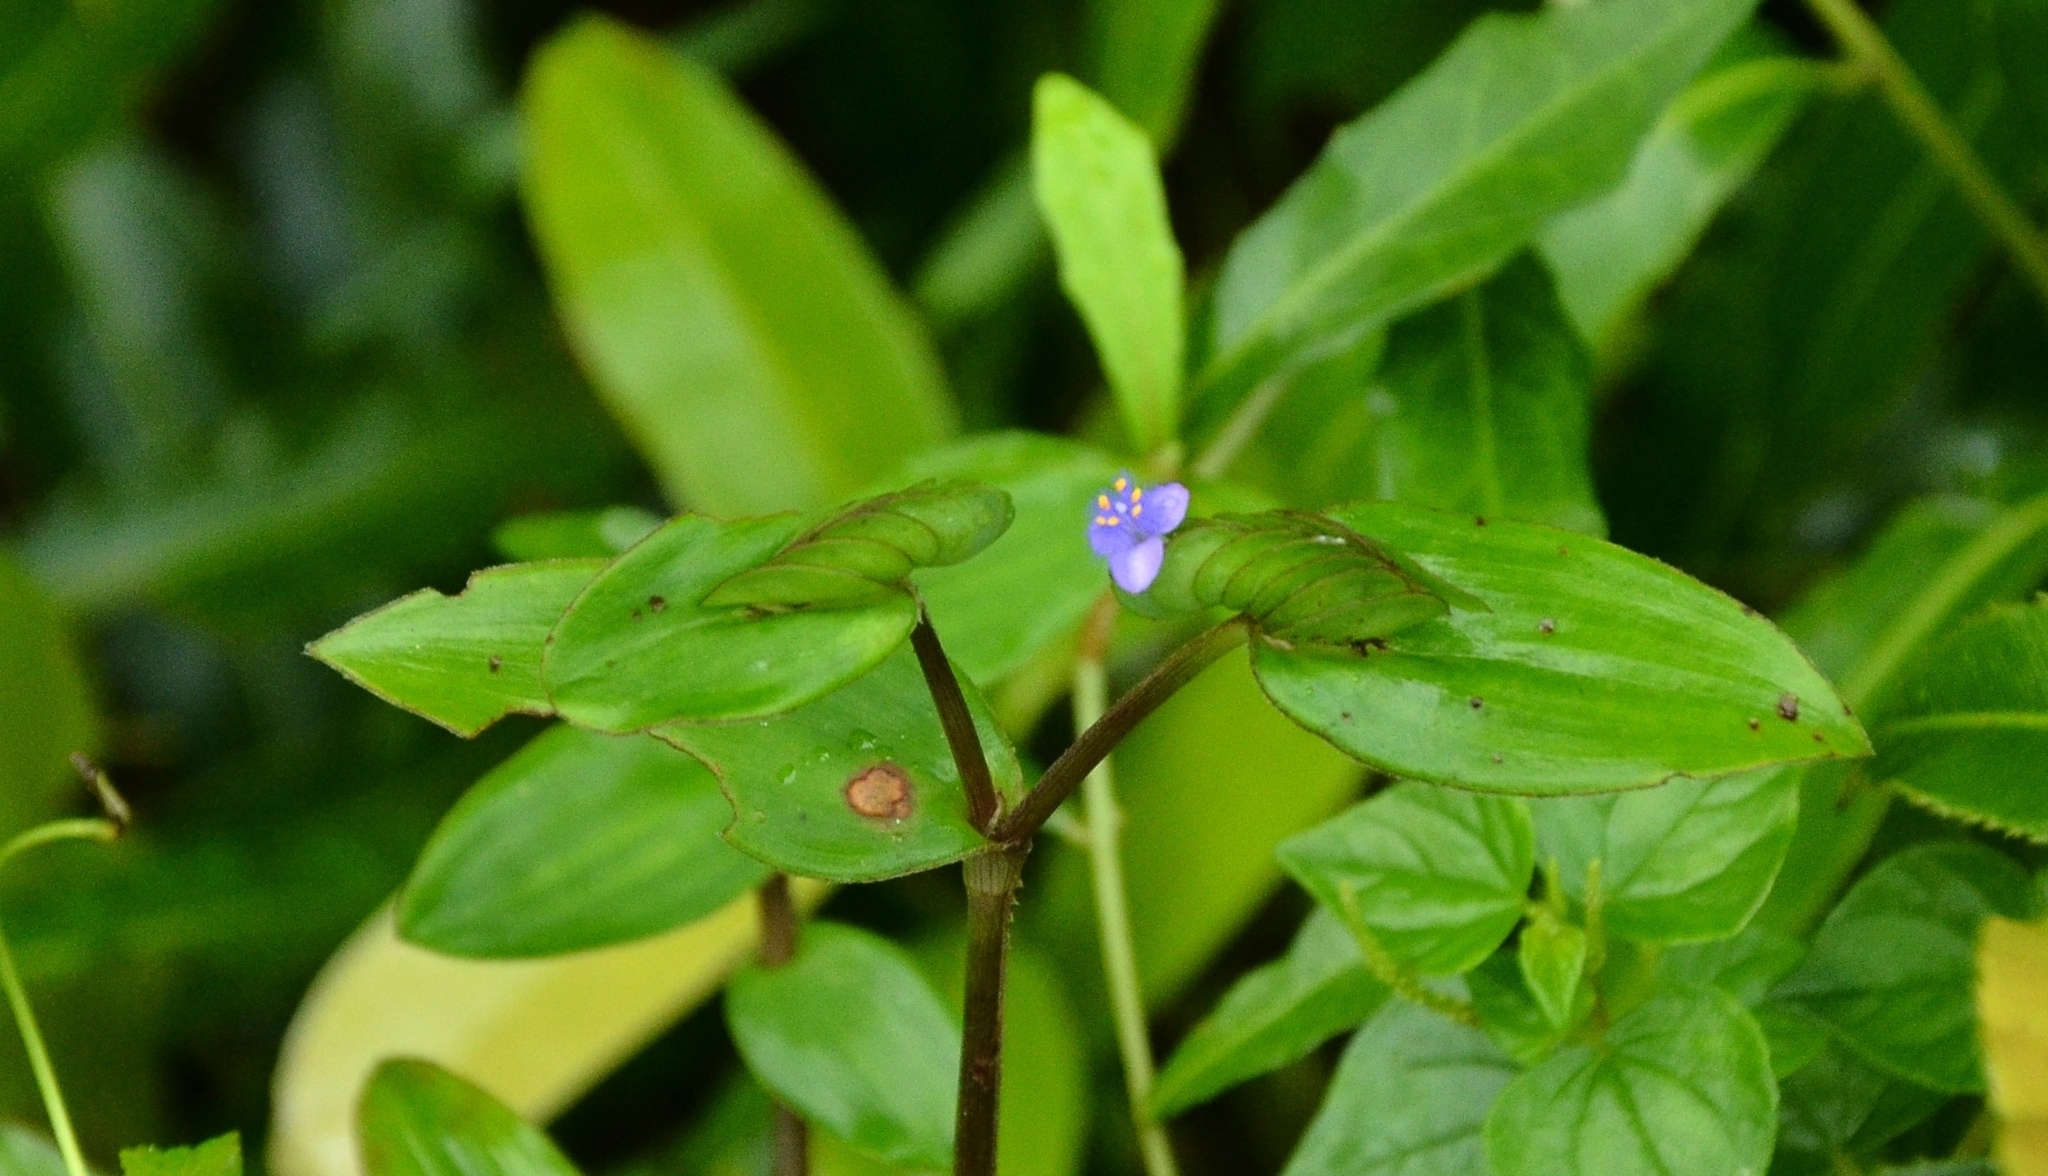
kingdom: Plantae
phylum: Tracheophyta
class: Liliopsida
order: Commelinales
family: Commelinaceae
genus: Cyanotis
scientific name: Cyanotis cristata
